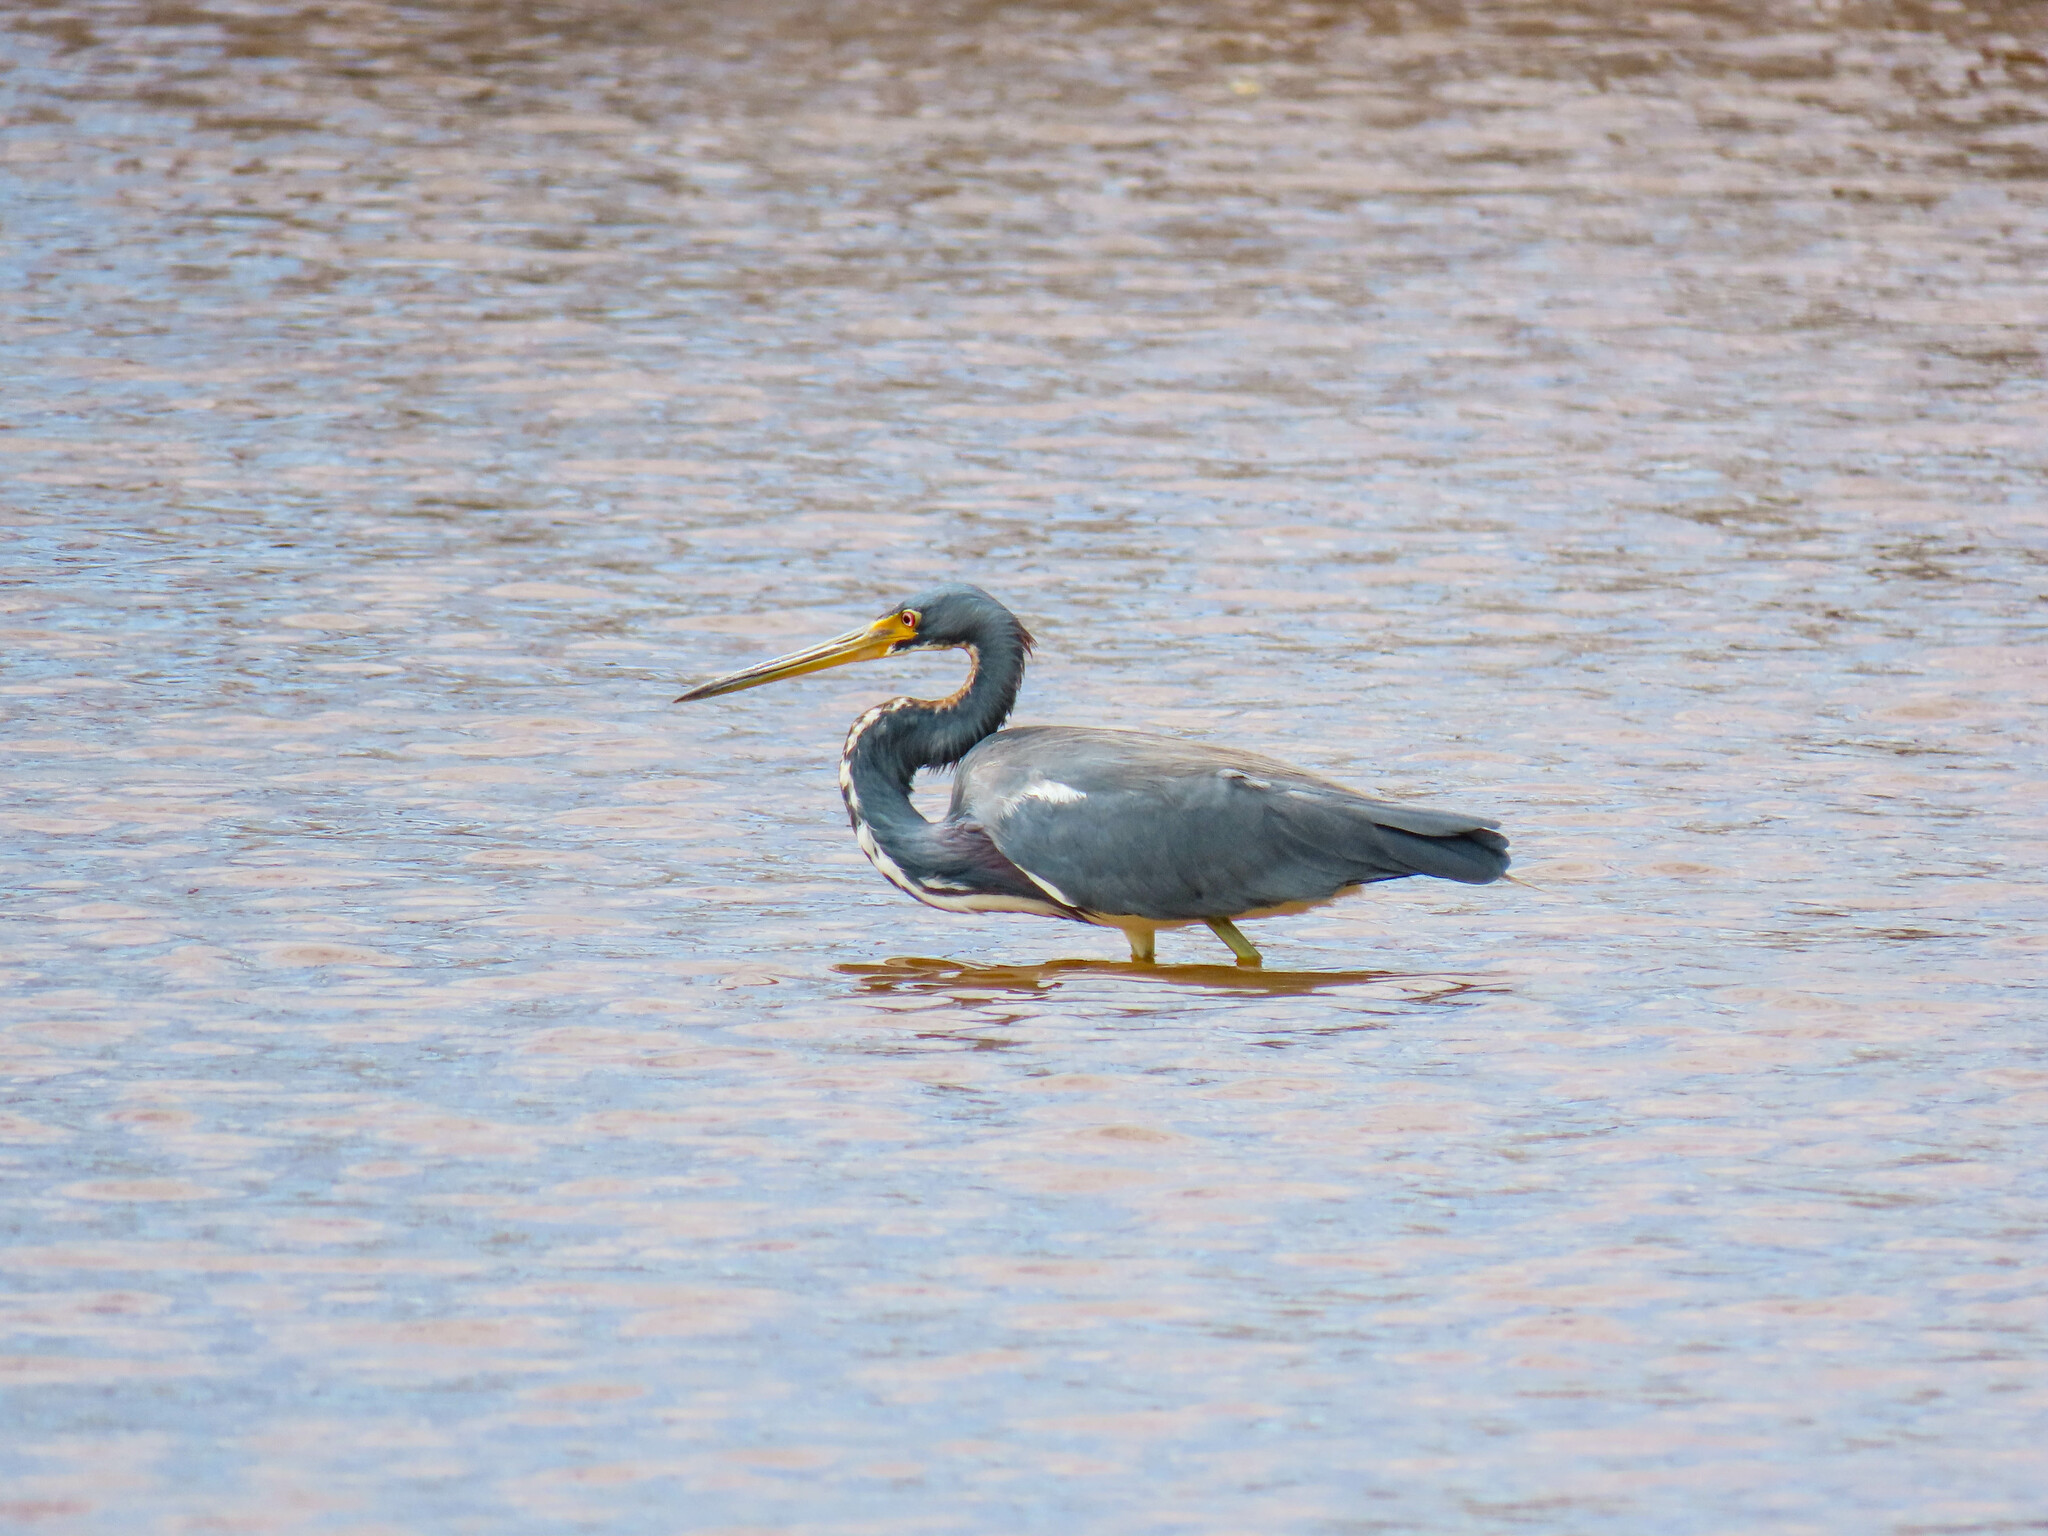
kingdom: Animalia
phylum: Chordata
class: Aves
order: Pelecaniformes
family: Ardeidae
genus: Egretta
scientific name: Egretta tricolor
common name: Tricolored heron
